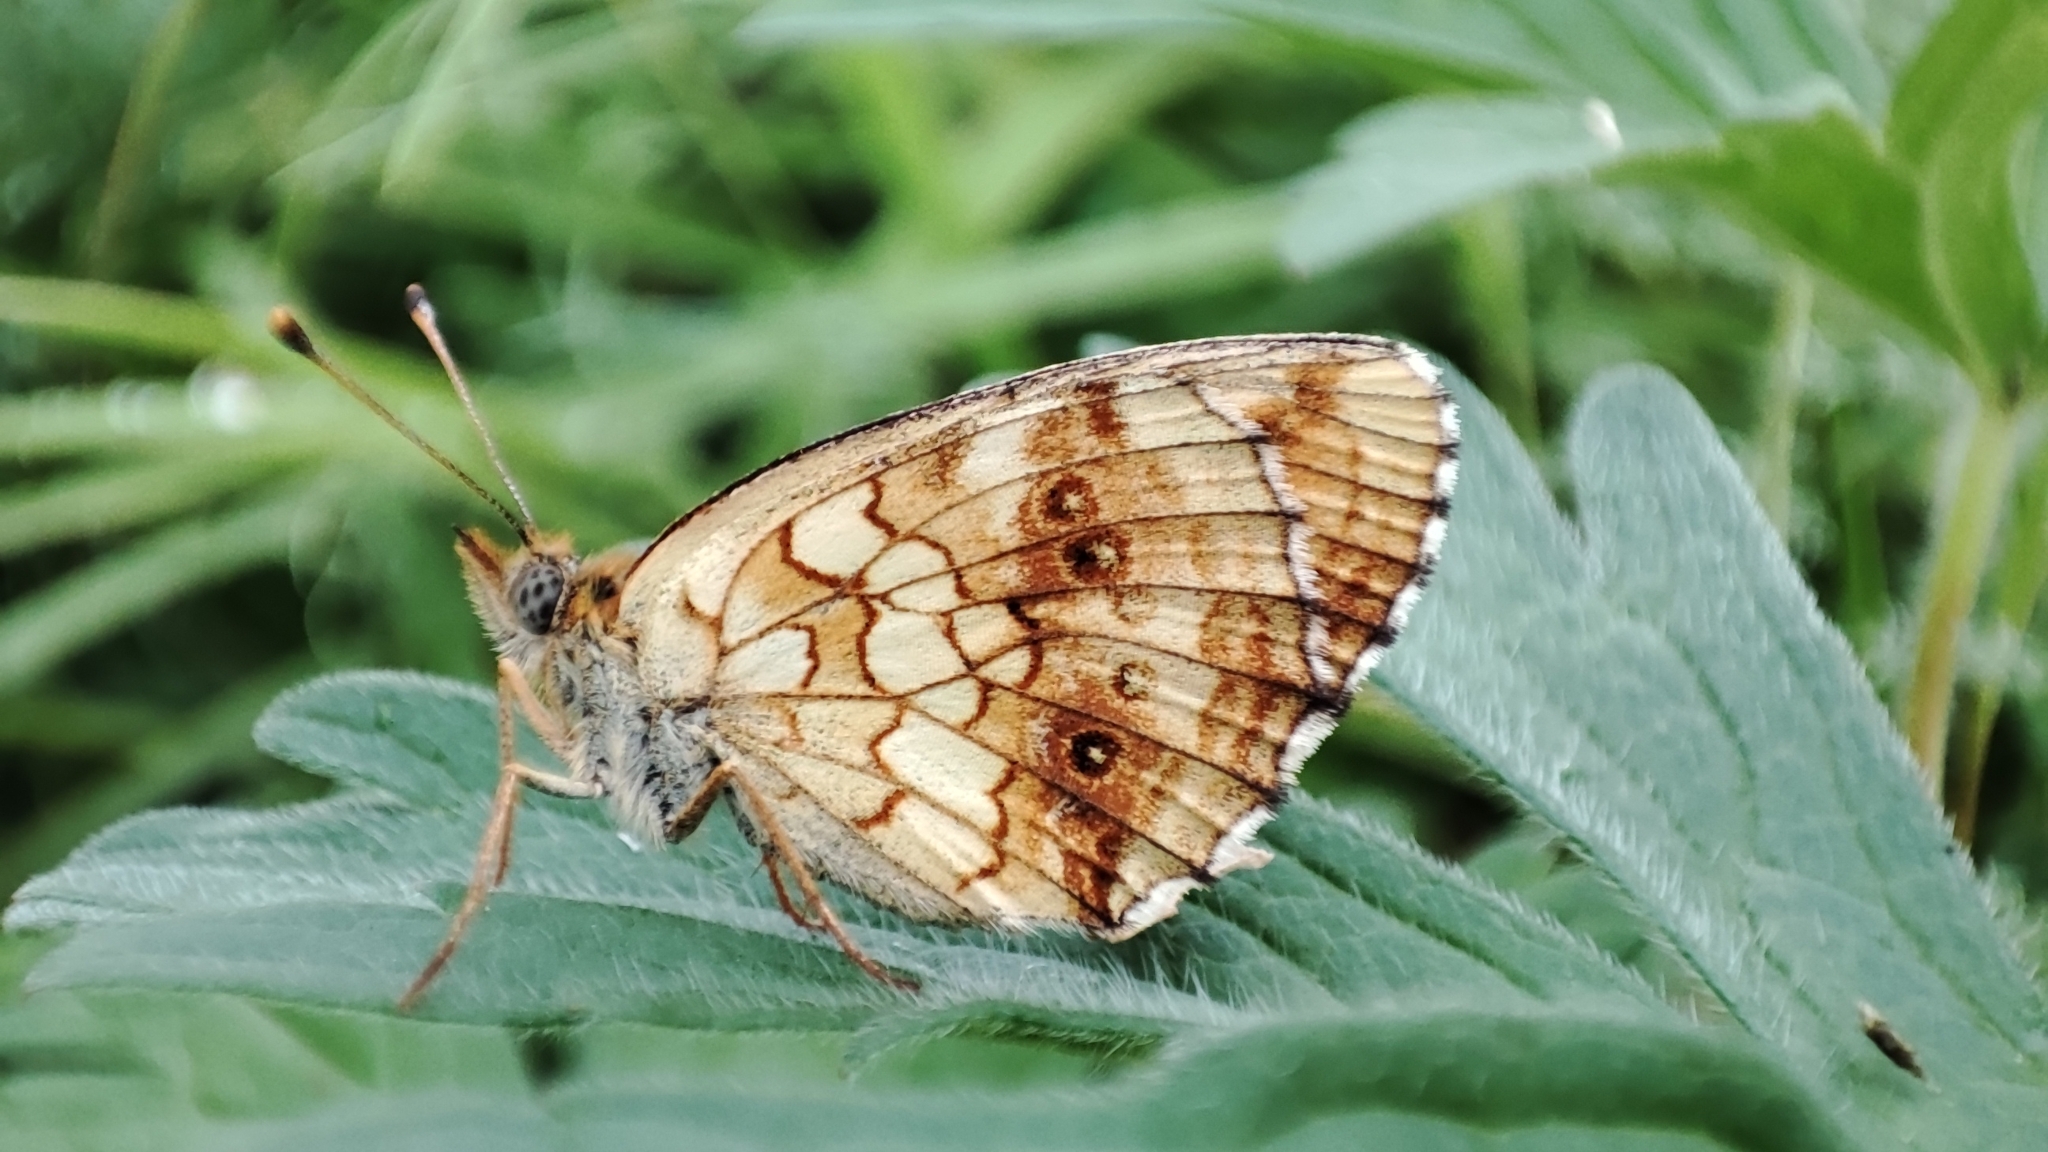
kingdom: Animalia
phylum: Arthropoda
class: Insecta
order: Lepidoptera
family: Nymphalidae
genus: Brenthis
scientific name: Brenthis ino
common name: Lesser marbled fritillary
